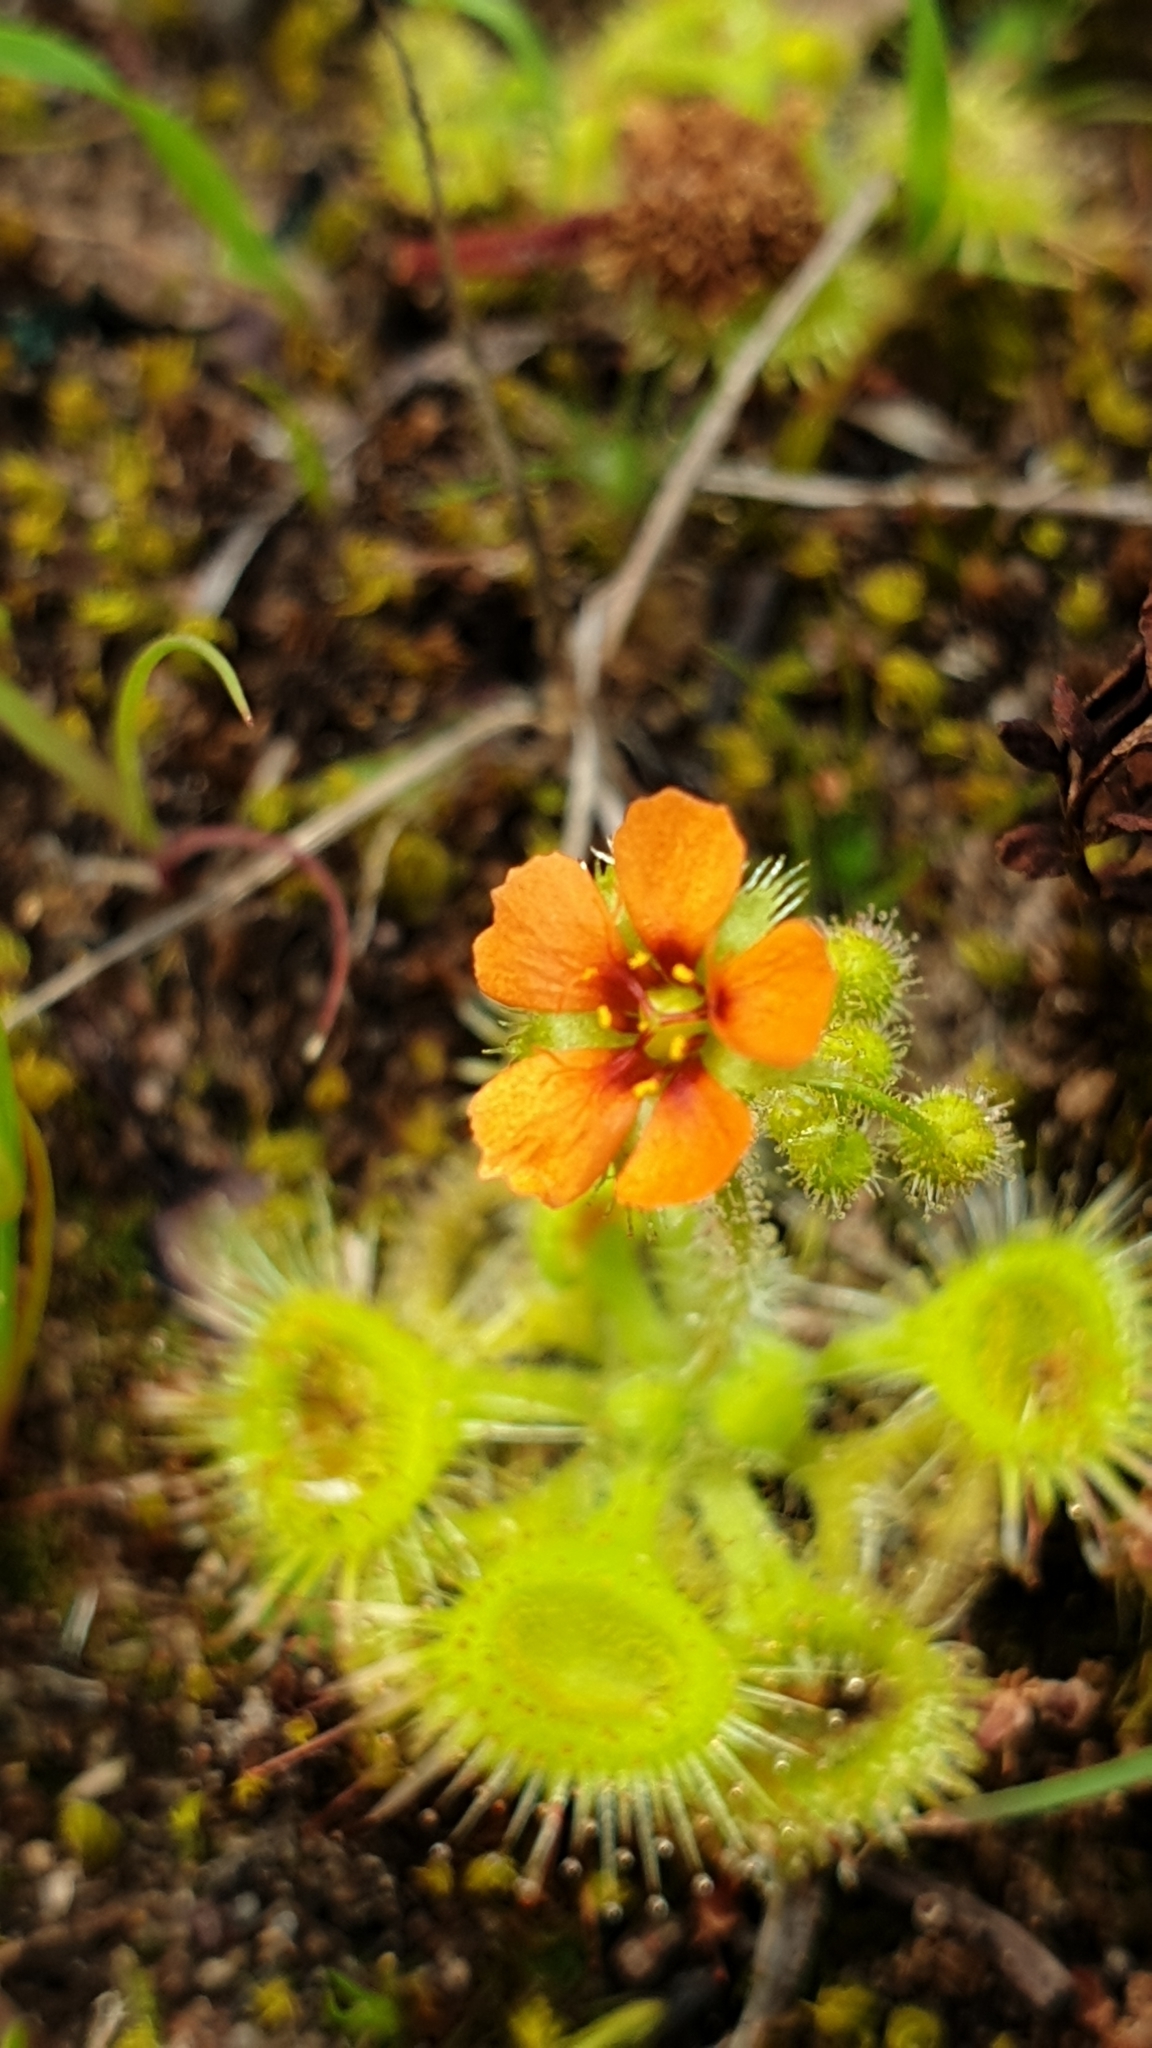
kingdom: Plantae
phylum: Tracheophyta
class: Magnoliopsida
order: Caryophyllales
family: Droseraceae
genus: Drosera
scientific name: Drosera glanduligera
